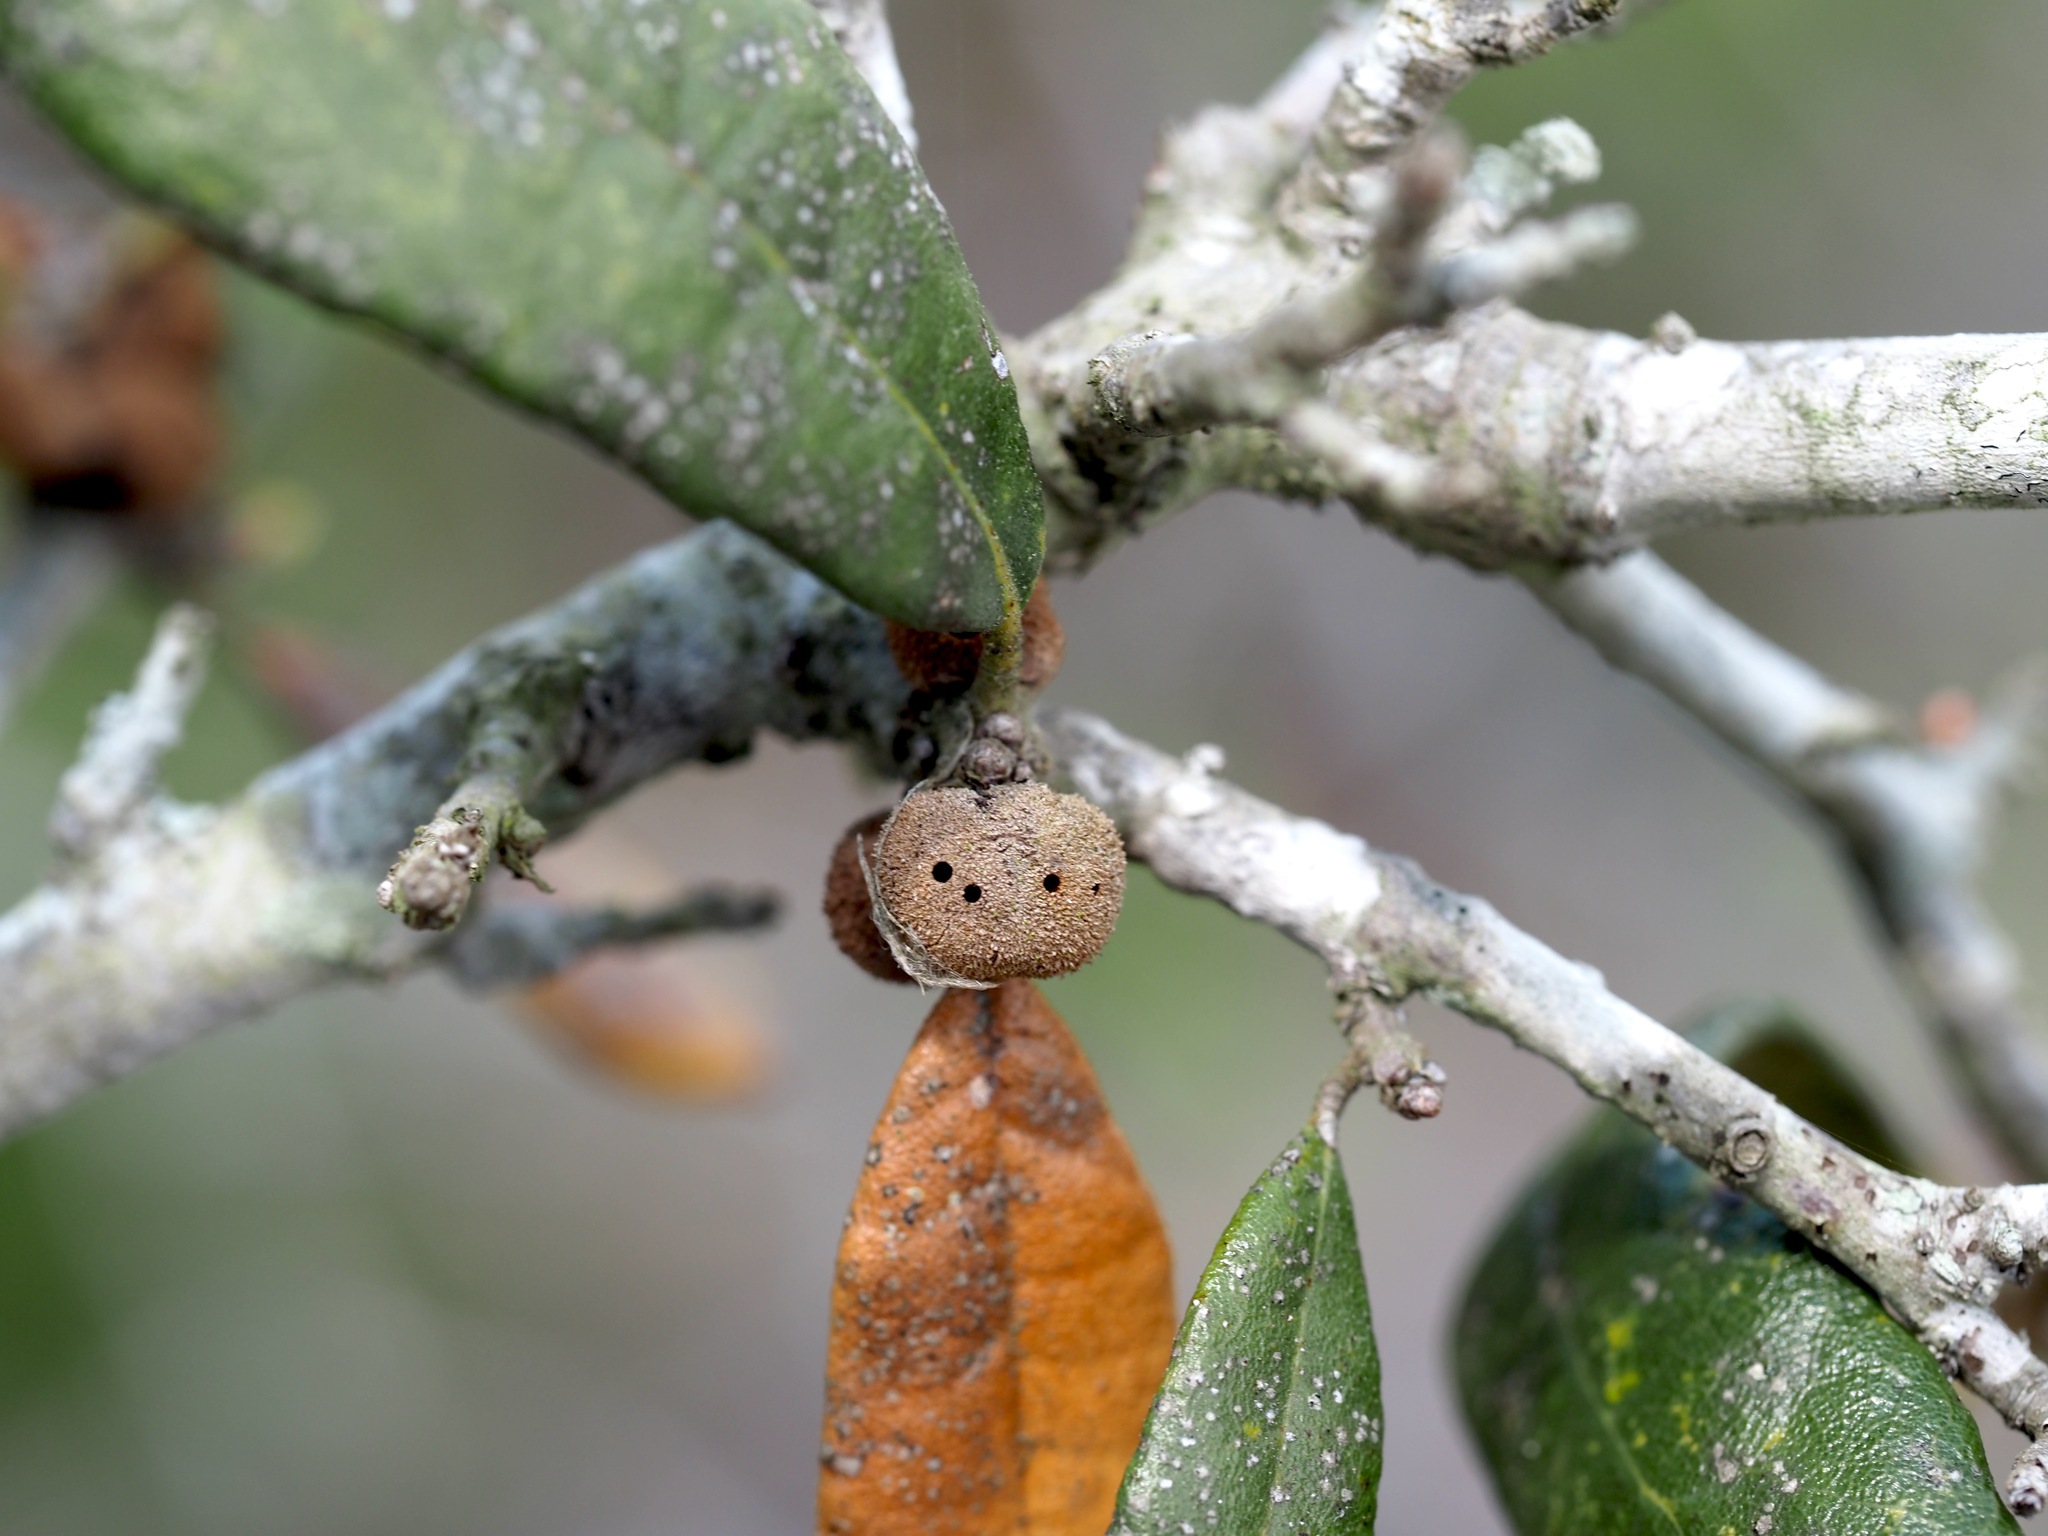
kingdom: Animalia
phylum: Arthropoda
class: Insecta
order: Hymenoptera
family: Cynipidae
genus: Disholcaspis
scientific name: Disholcaspis
